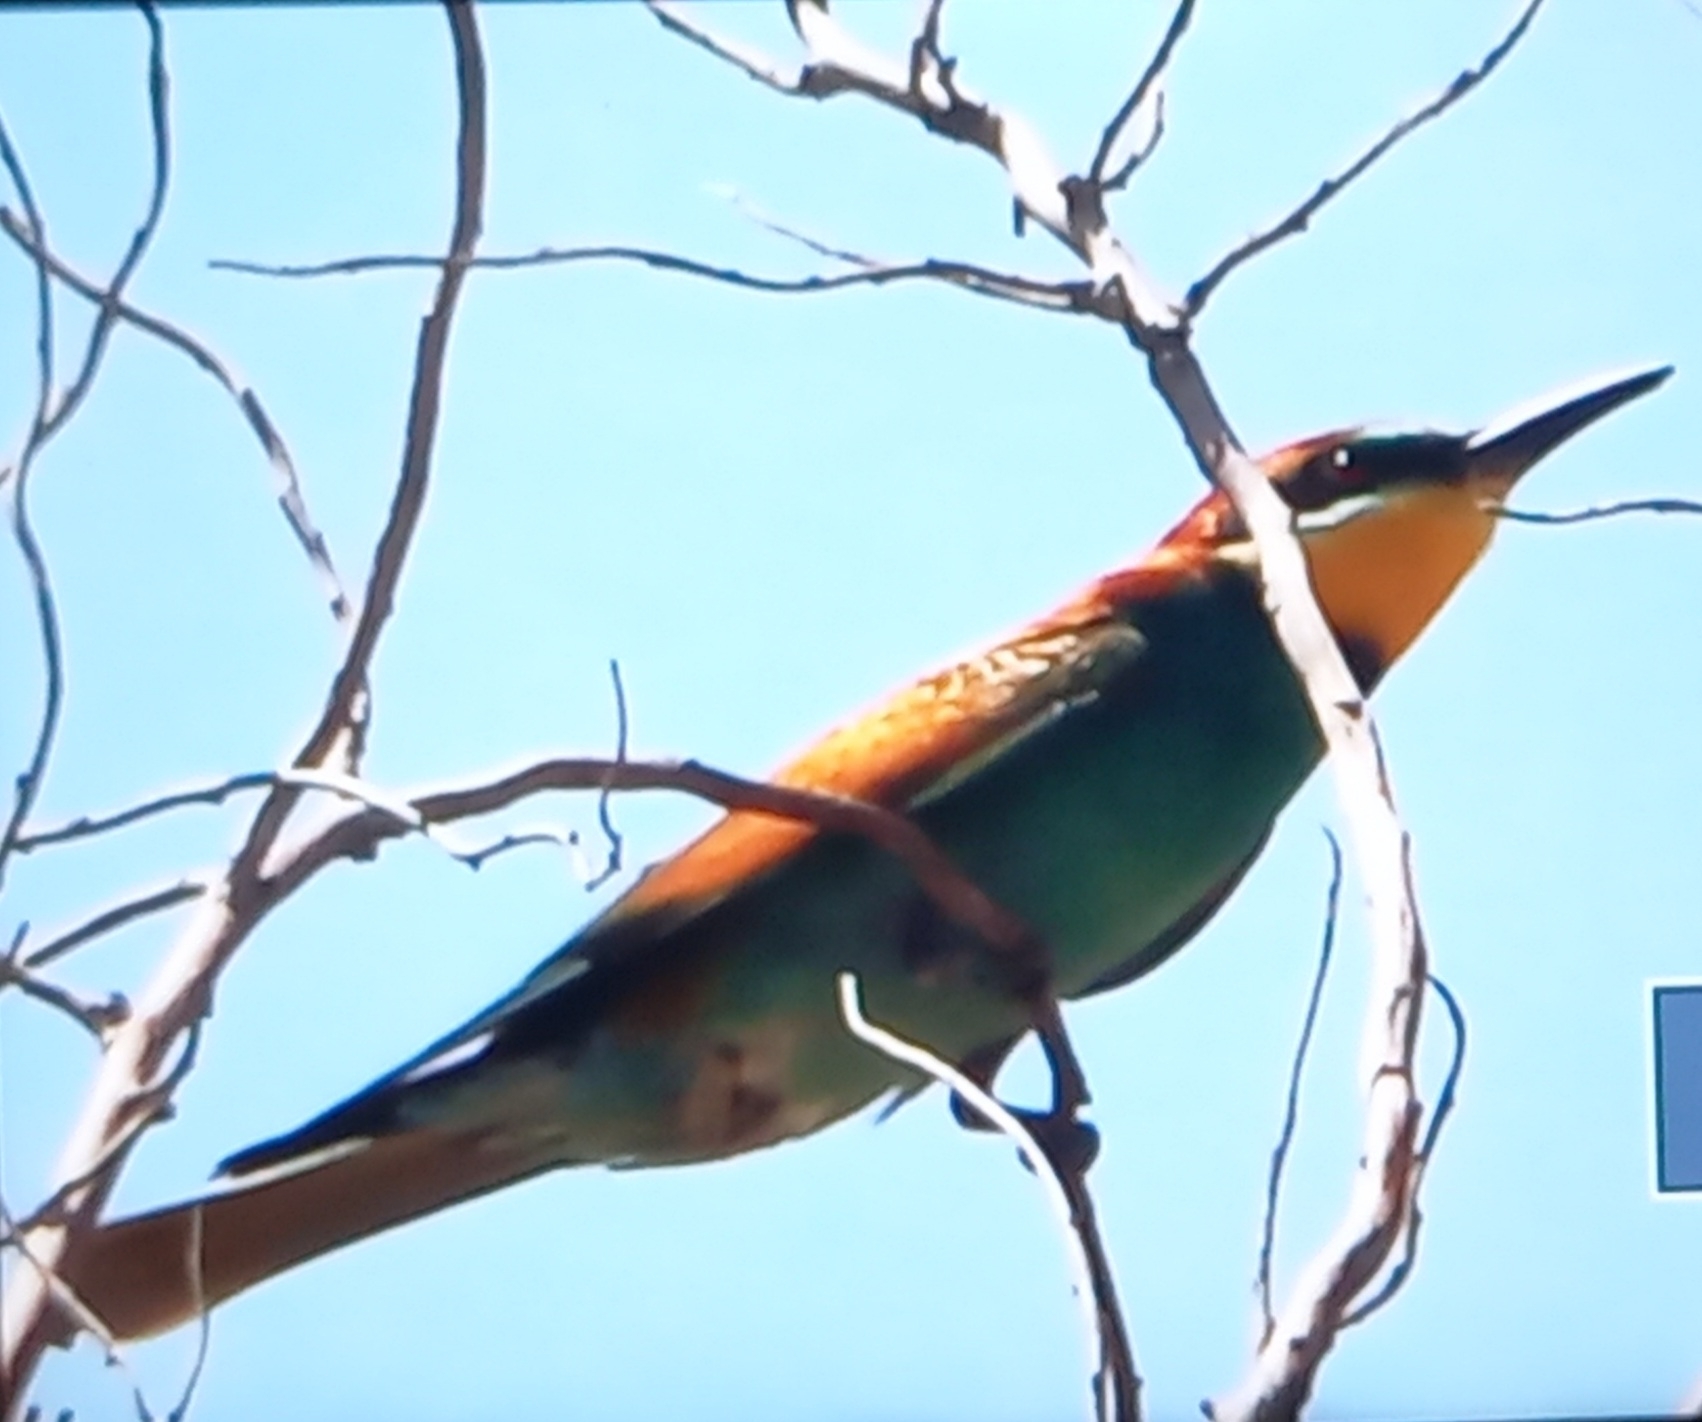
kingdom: Animalia
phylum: Chordata
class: Aves
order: Coraciiformes
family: Meropidae
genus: Merops
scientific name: Merops apiaster
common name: European bee-eater
